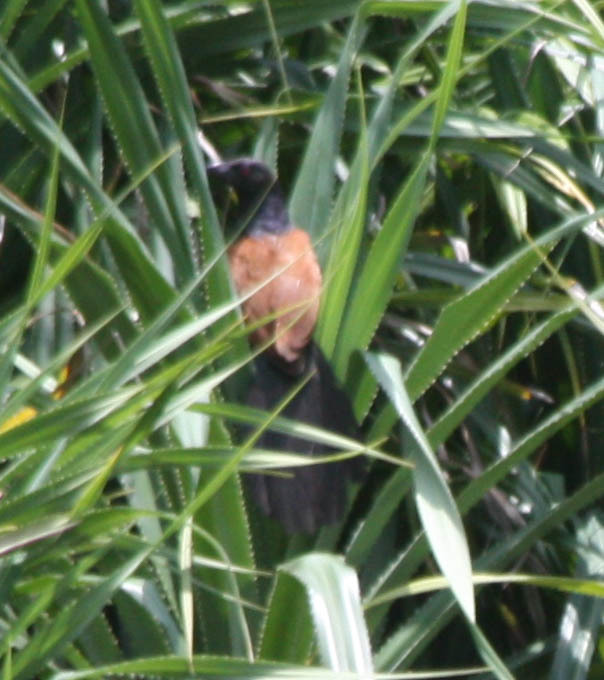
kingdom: Animalia
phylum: Chordata
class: Aves
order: Cuculiformes
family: Cuculidae
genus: Centropus
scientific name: Centropus sinensis
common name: Greater coucal
